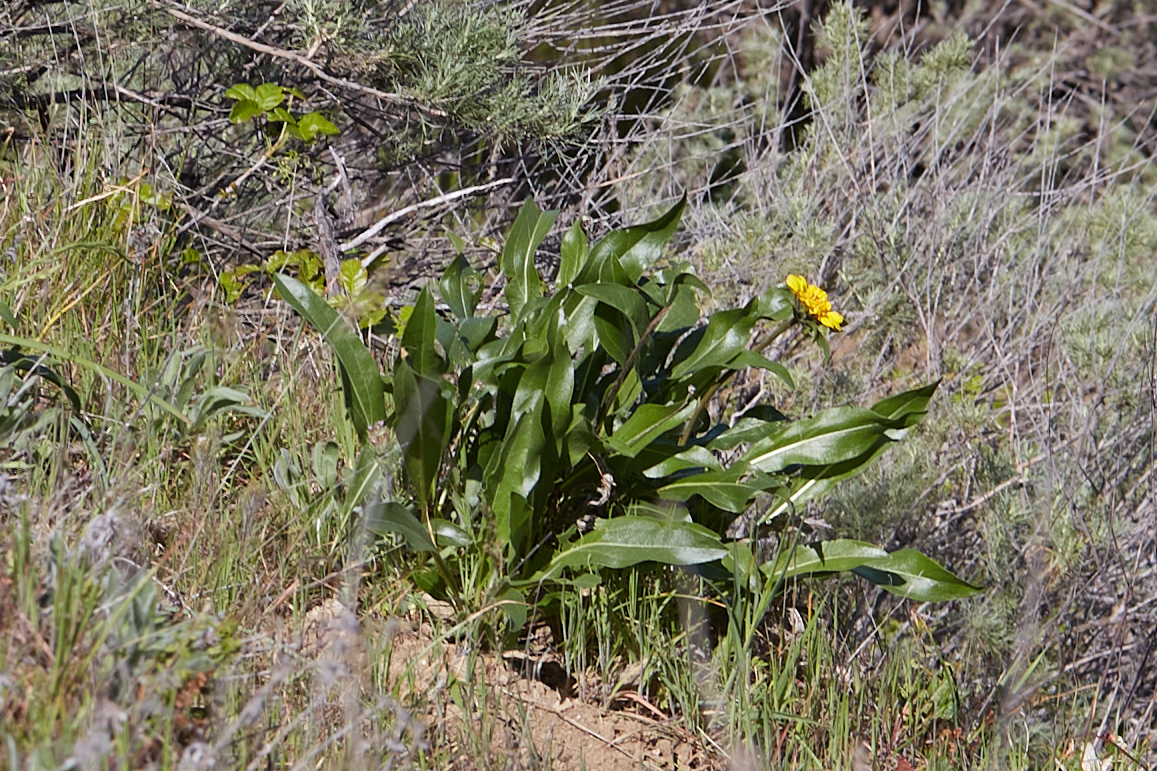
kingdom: Plantae
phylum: Tracheophyta
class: Magnoliopsida
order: Asterales
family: Asteraceae
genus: Helianthella
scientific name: Helianthella castanea
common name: Diablo helianthella
